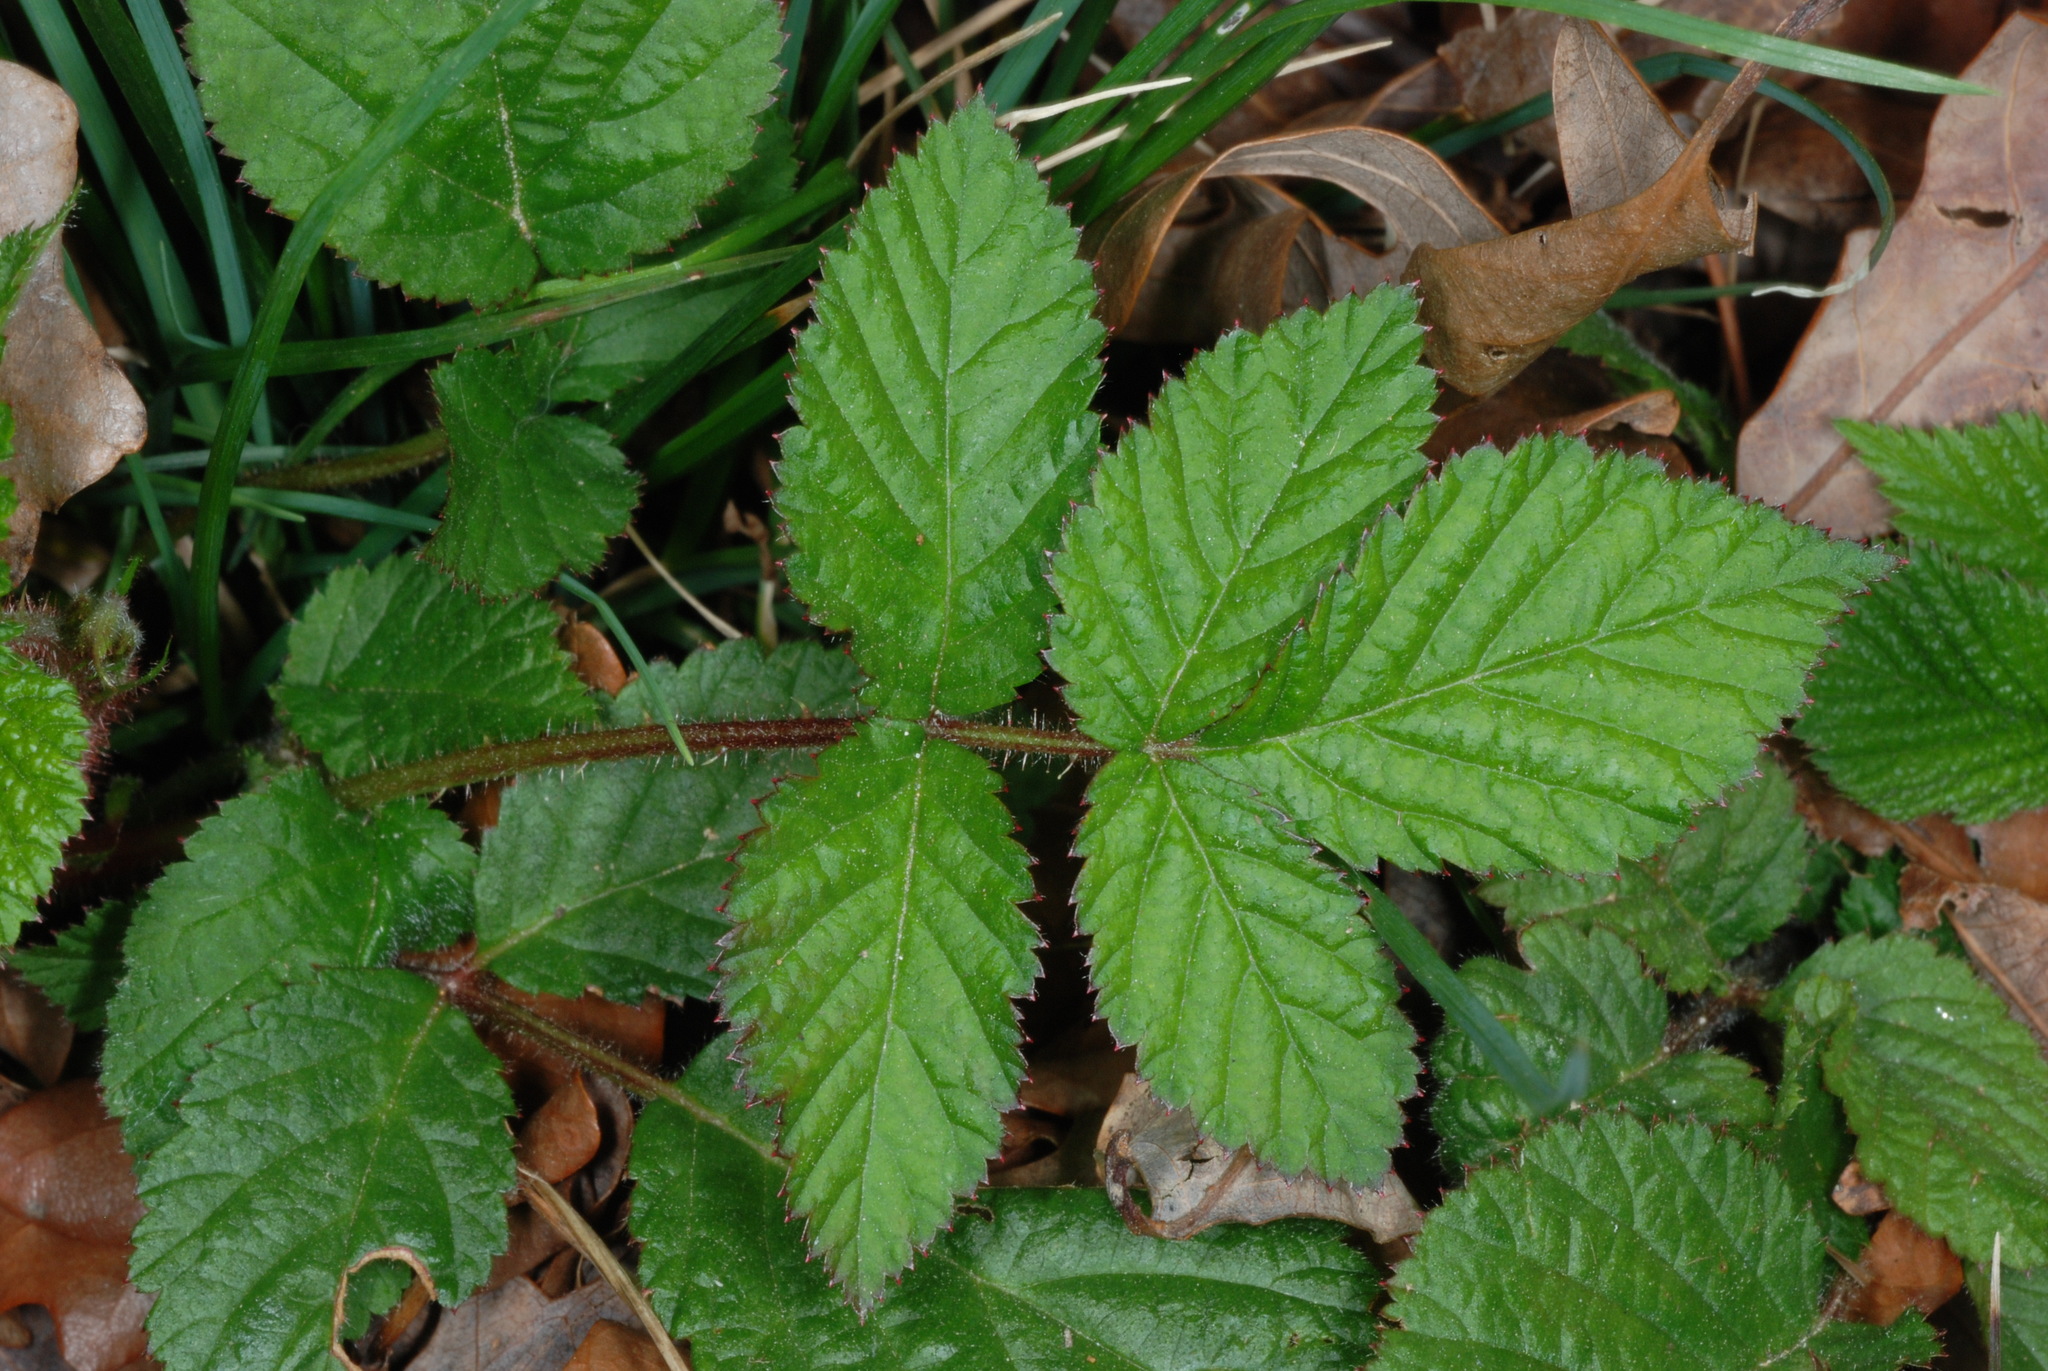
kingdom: Plantae
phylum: Tracheophyta
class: Magnoliopsida
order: Rosales
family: Rosaceae
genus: Rubus
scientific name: Rubus hirsutus
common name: Hirsute raspberry
